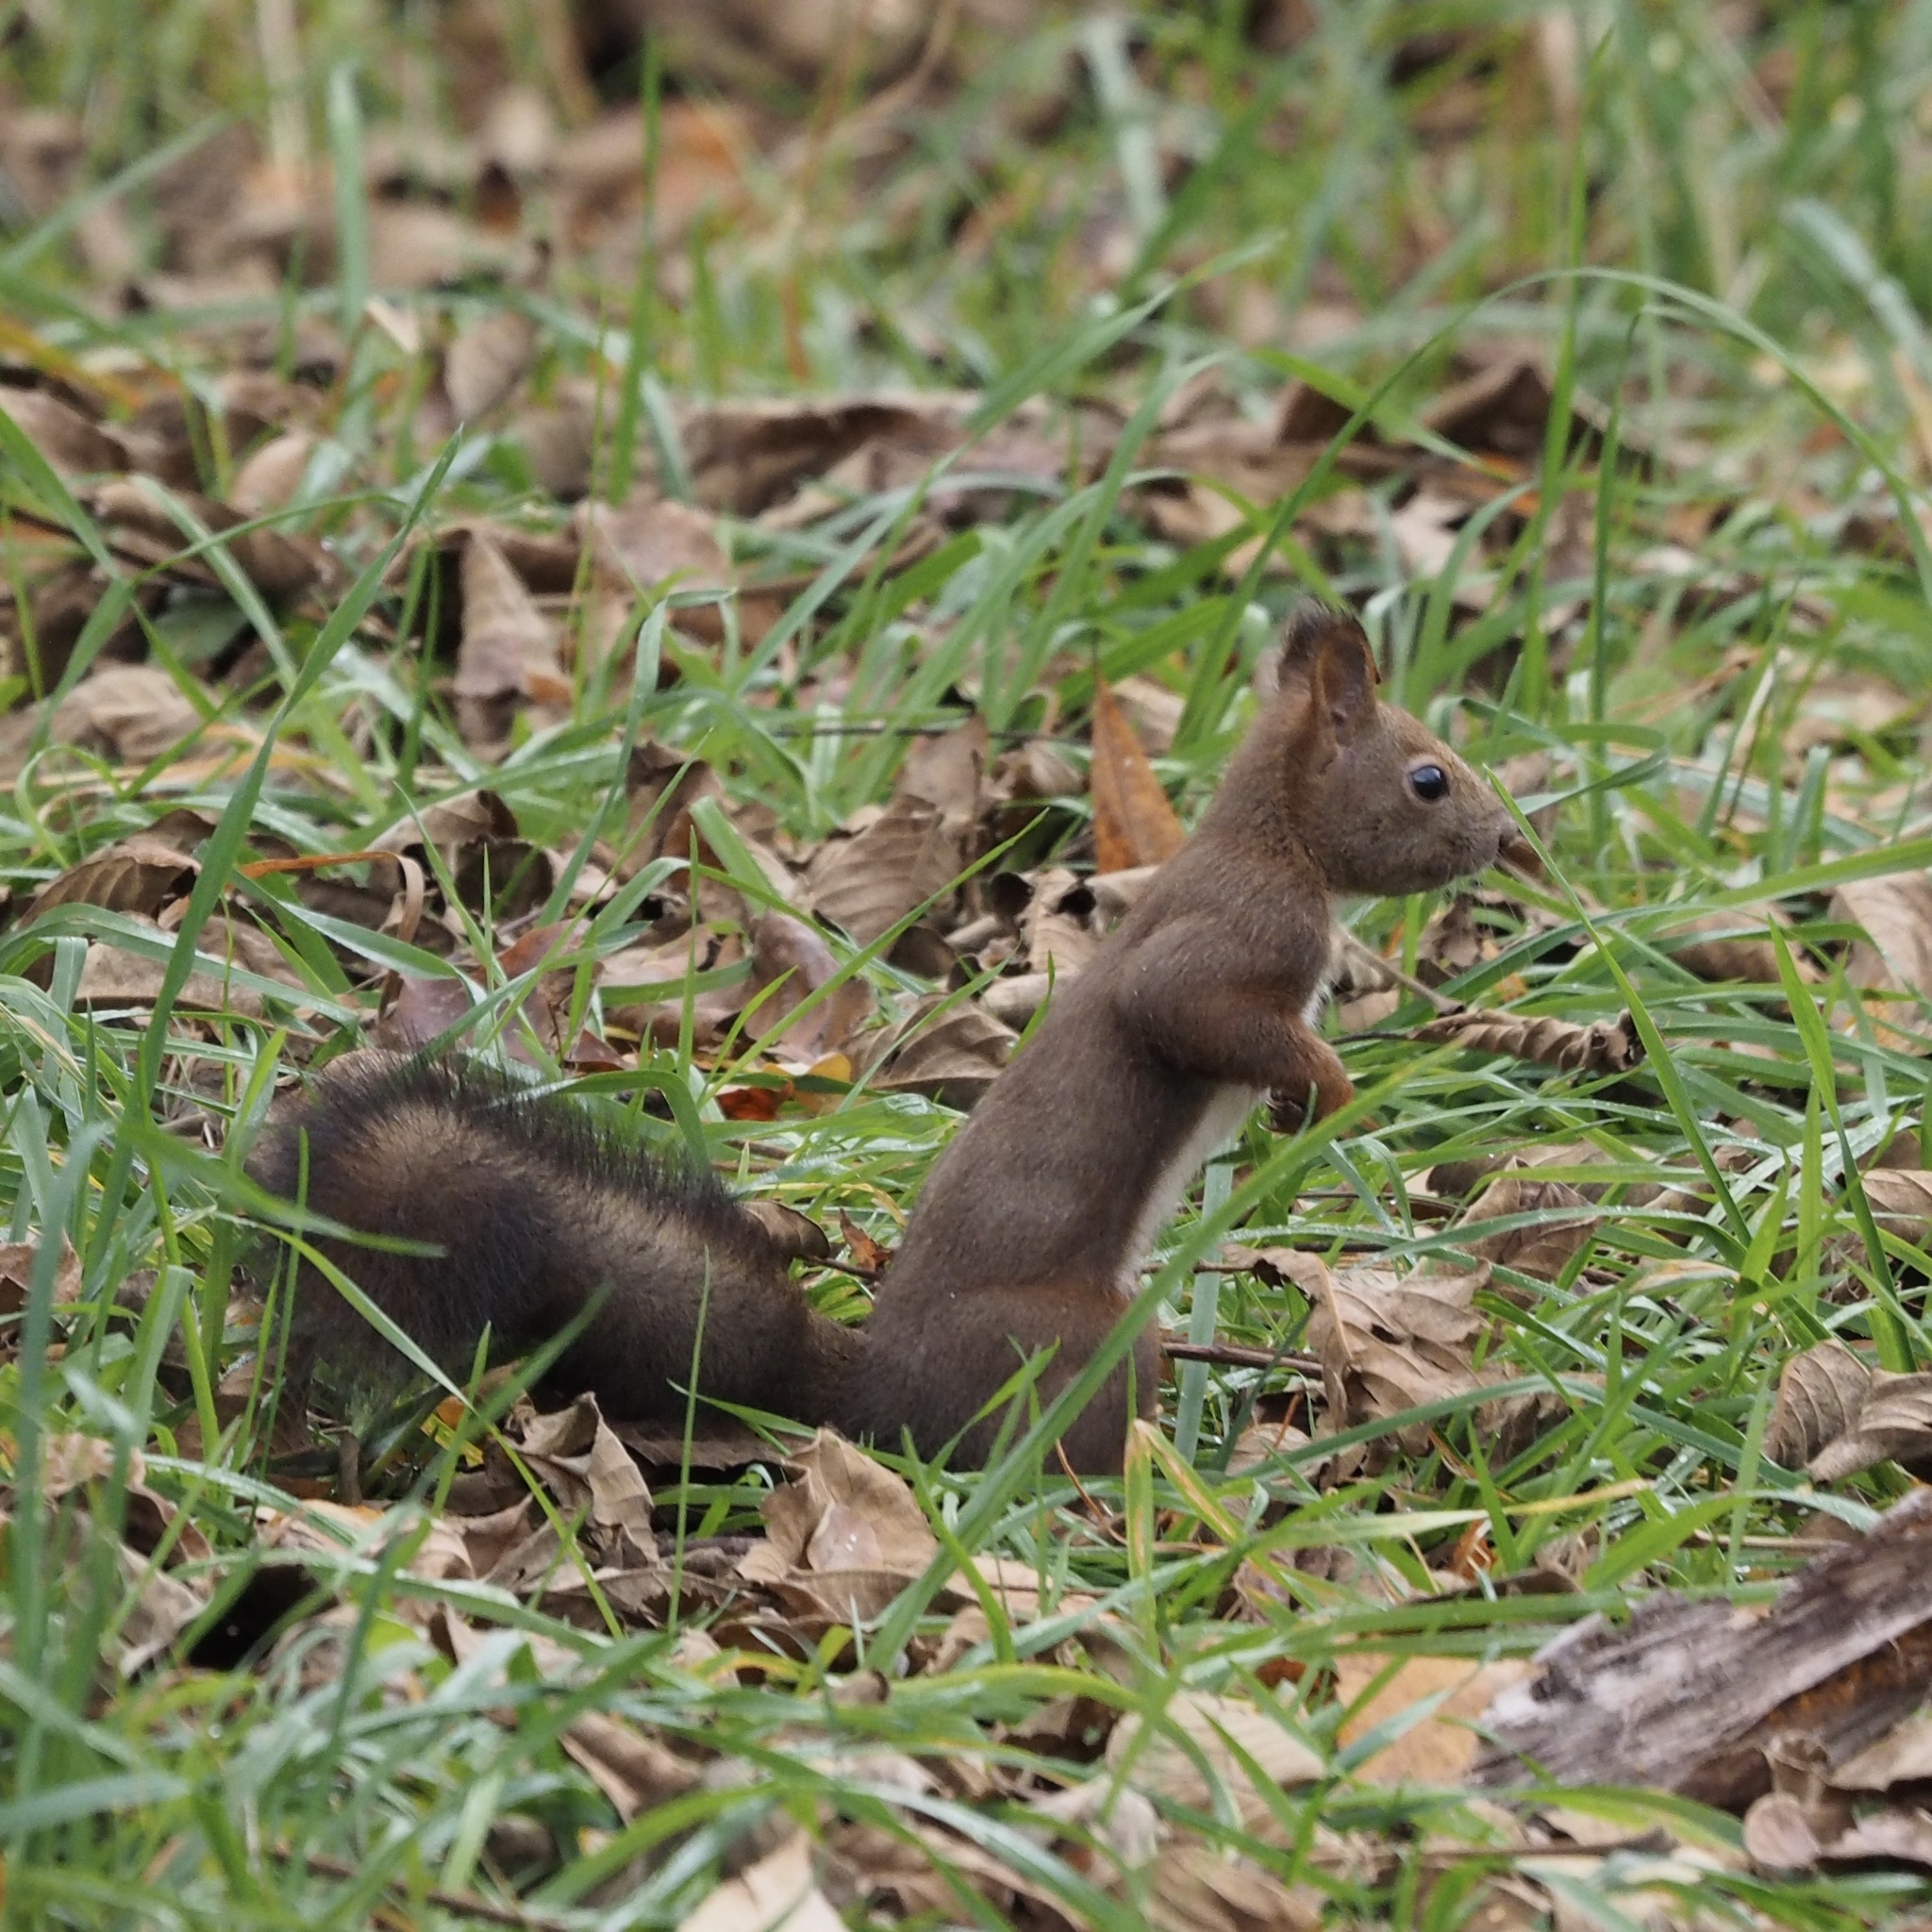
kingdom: Animalia
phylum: Chordata
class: Mammalia
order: Rodentia
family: Sciuridae
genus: Sciurus
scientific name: Sciurus vulgaris
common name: Eurasian red squirrel
